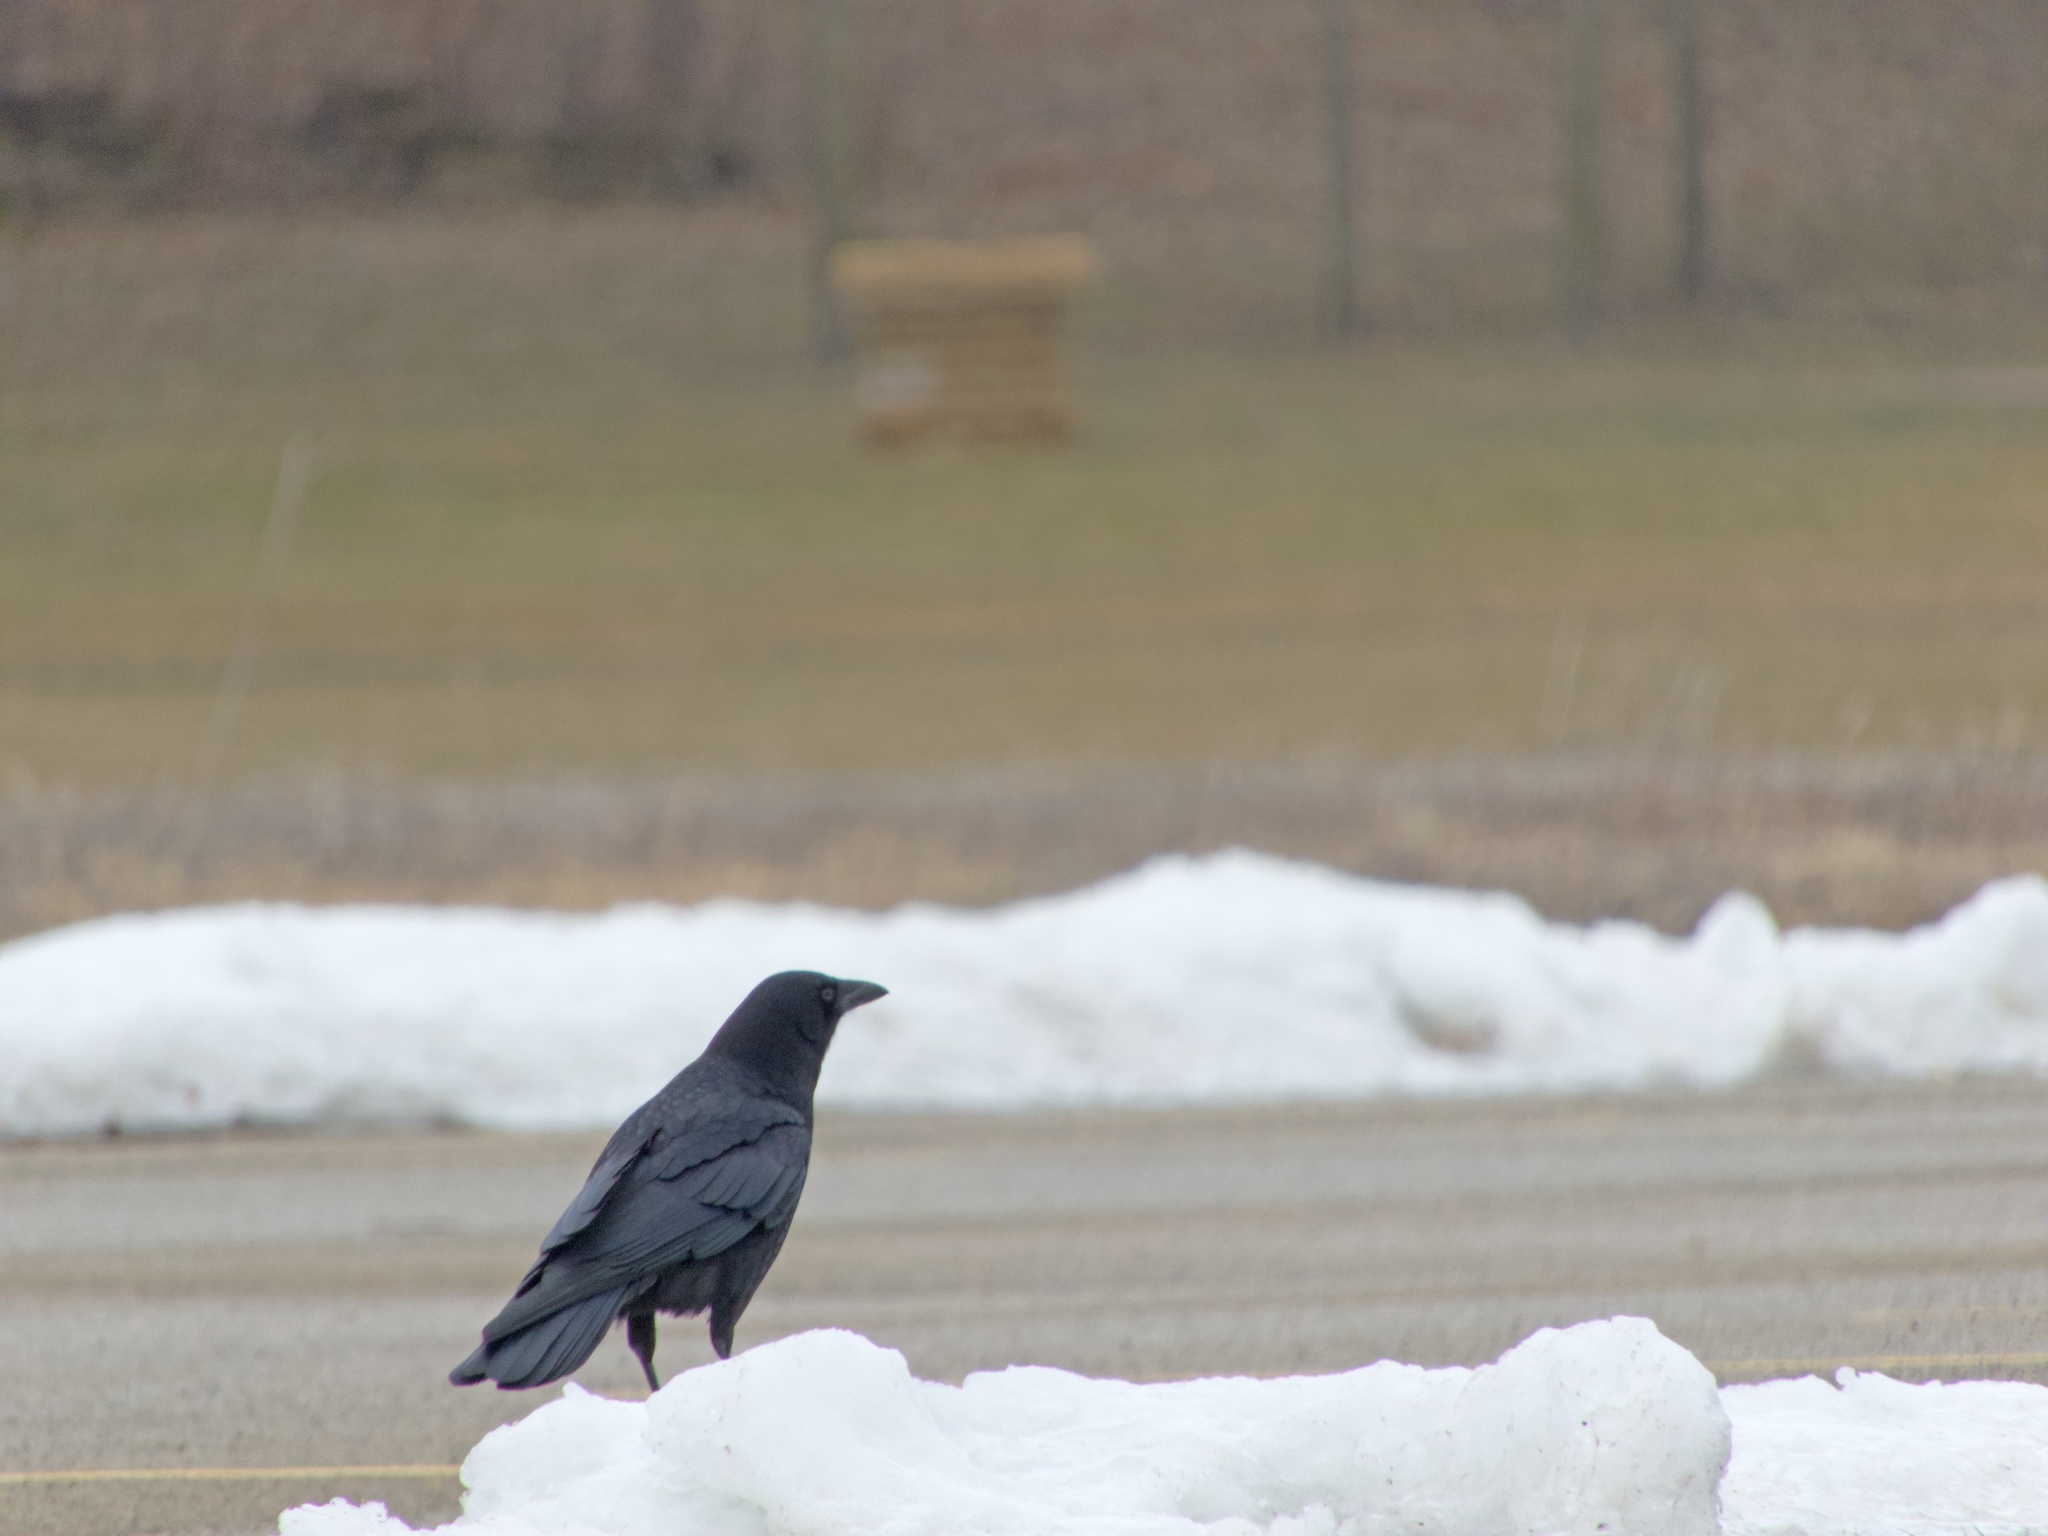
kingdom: Animalia
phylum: Chordata
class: Aves
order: Passeriformes
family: Corvidae
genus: Corvus
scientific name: Corvus brachyrhynchos
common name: American crow
